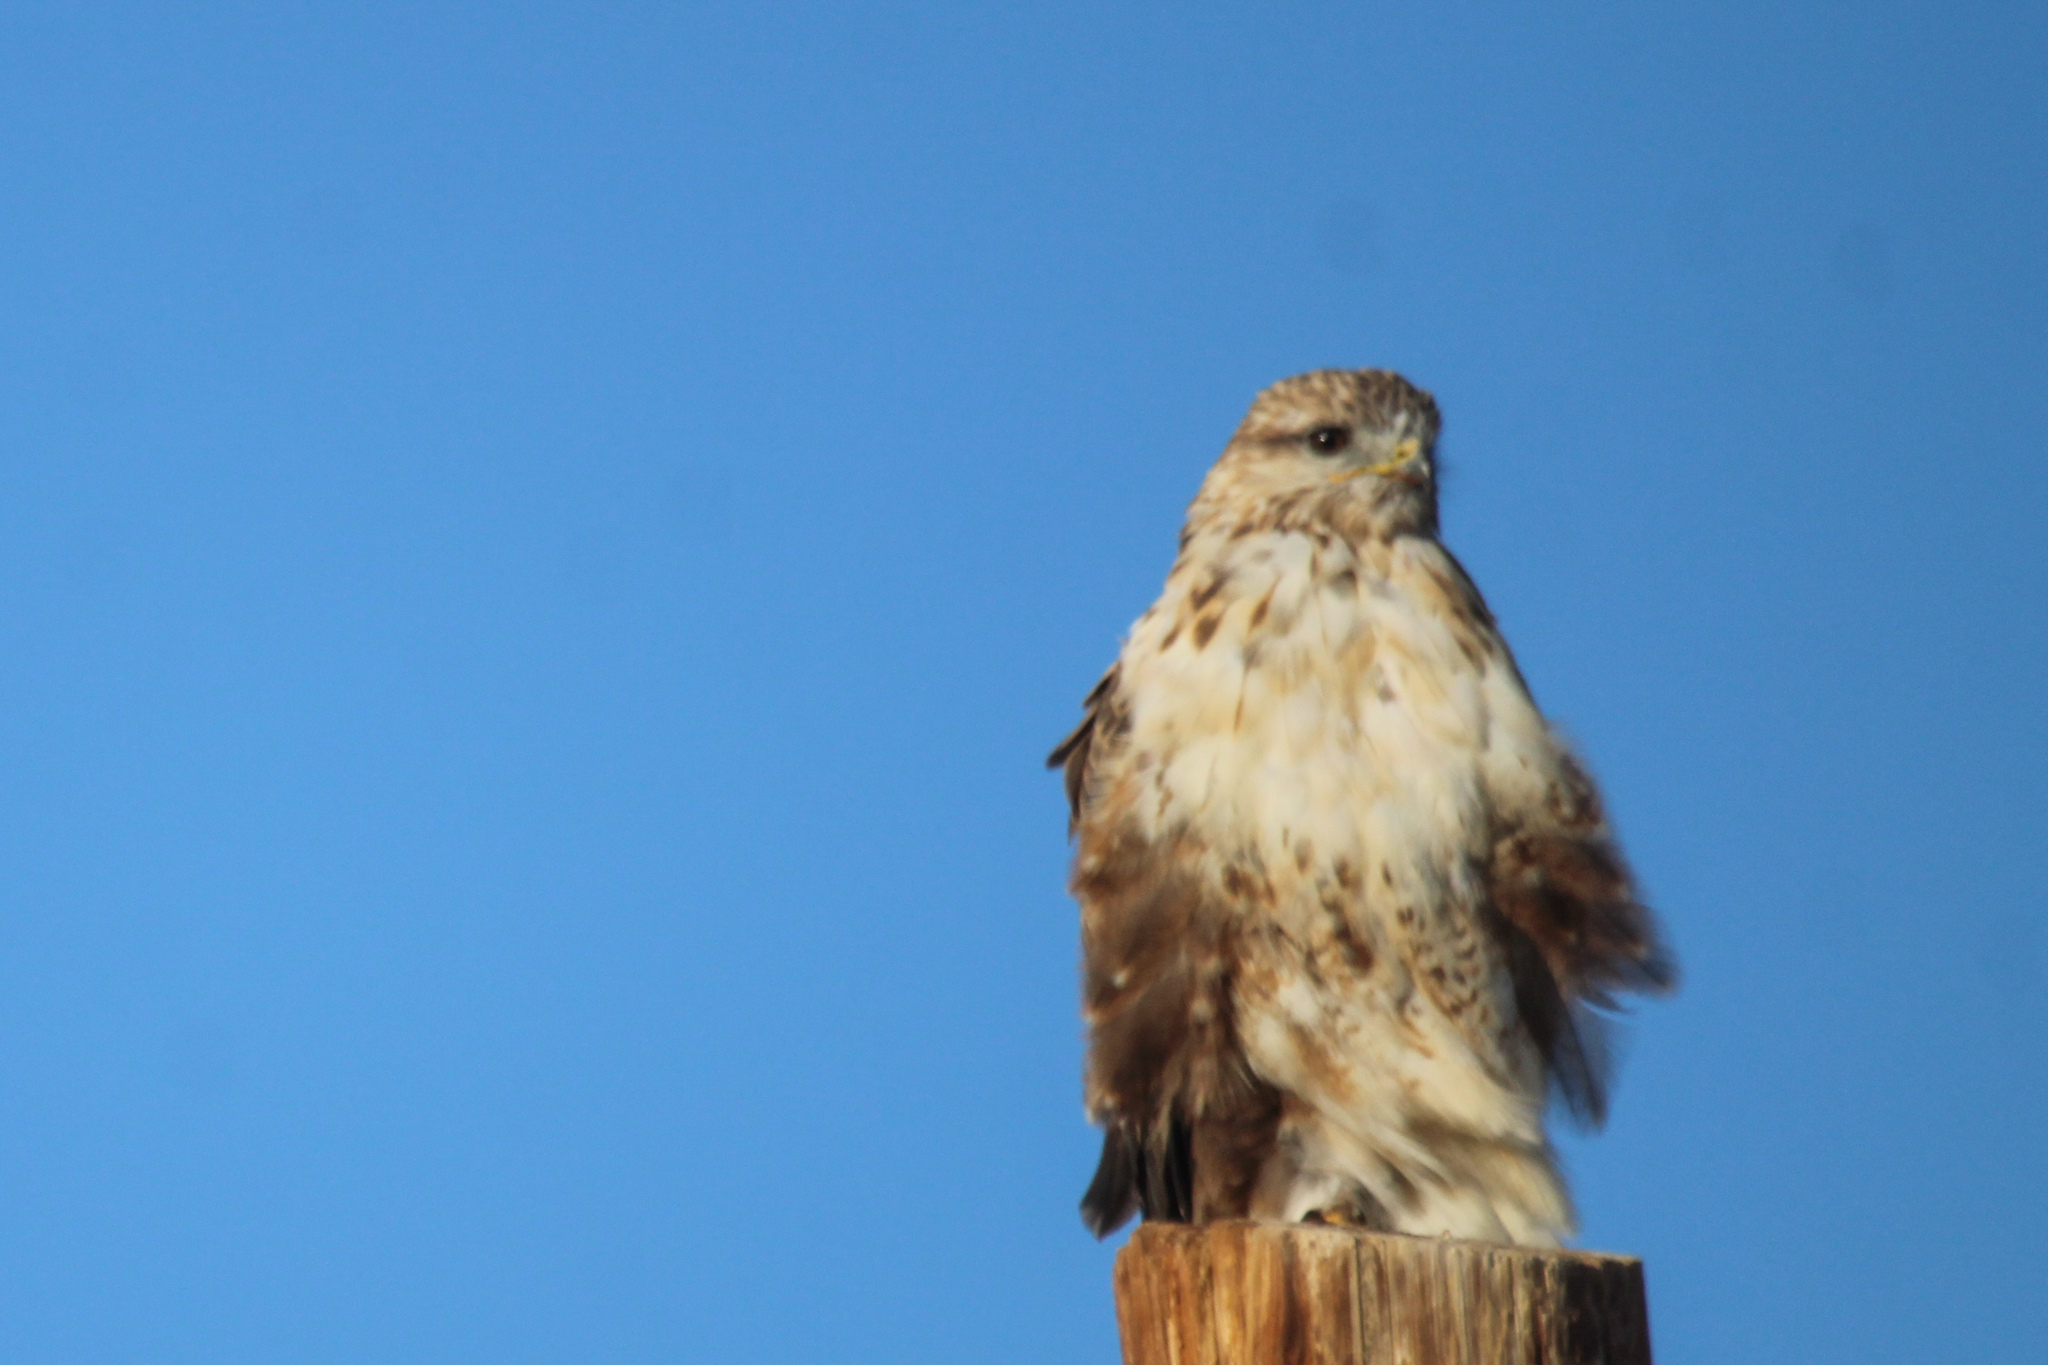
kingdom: Animalia
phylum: Chordata
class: Aves
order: Accipitriformes
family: Accipitridae
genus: Buteo
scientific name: Buteo hemilasius
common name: Upland buzzard
